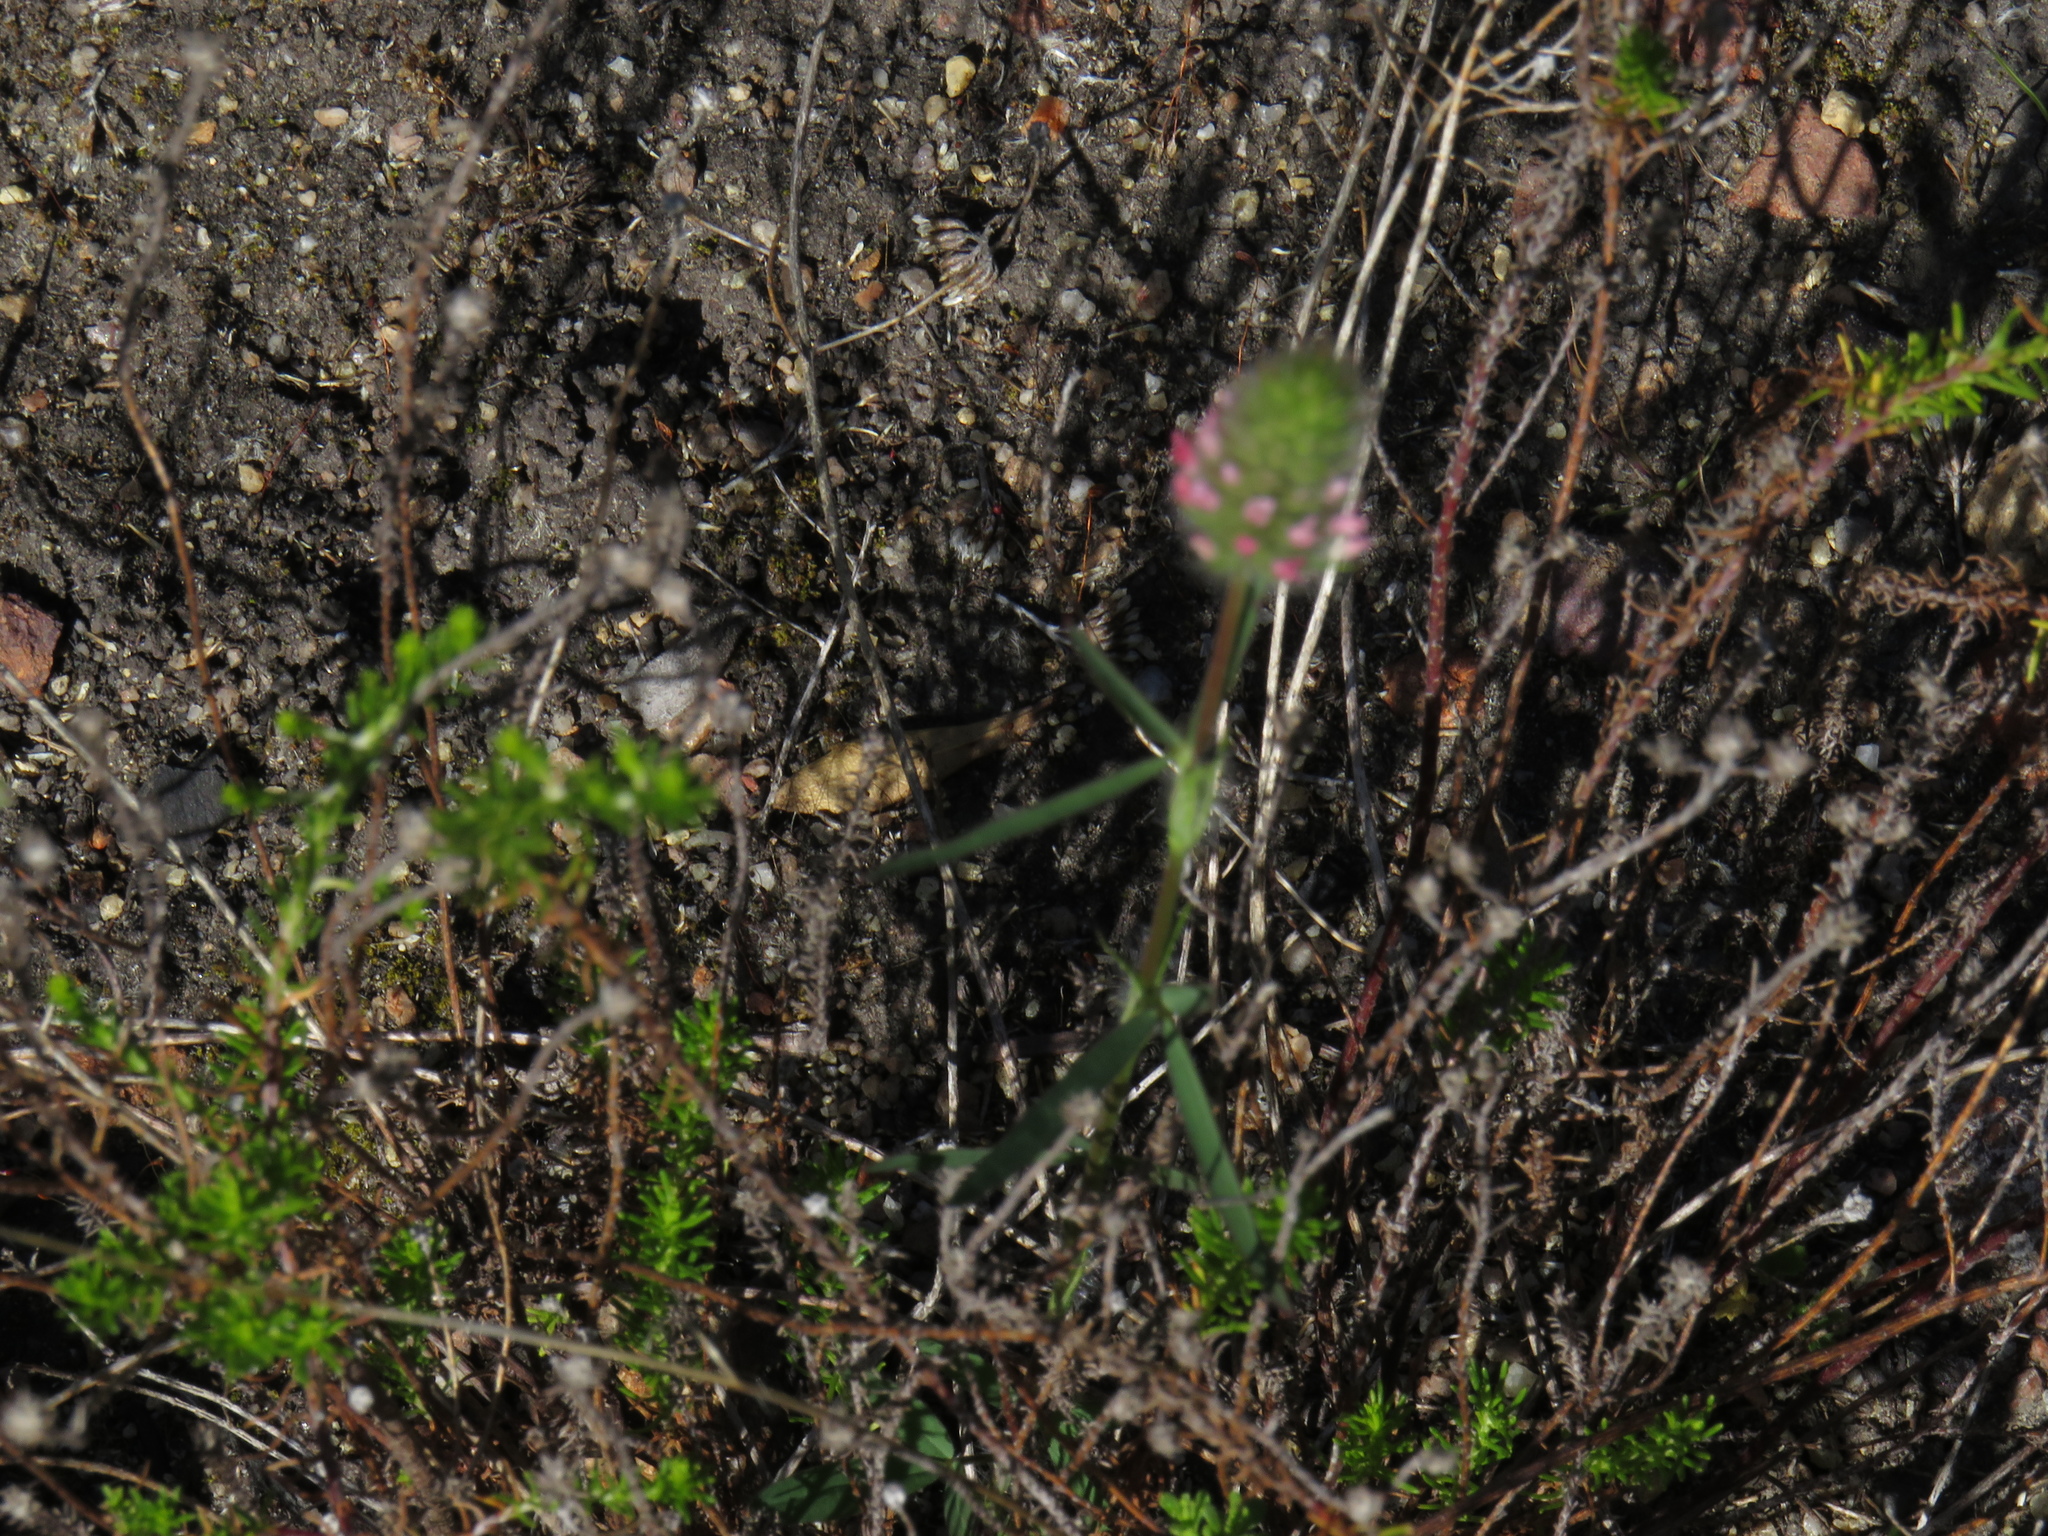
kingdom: Plantae
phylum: Tracheophyta
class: Magnoliopsida
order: Fabales
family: Fabaceae
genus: Trifolium
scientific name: Trifolium angustifolium
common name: Narrow clover
